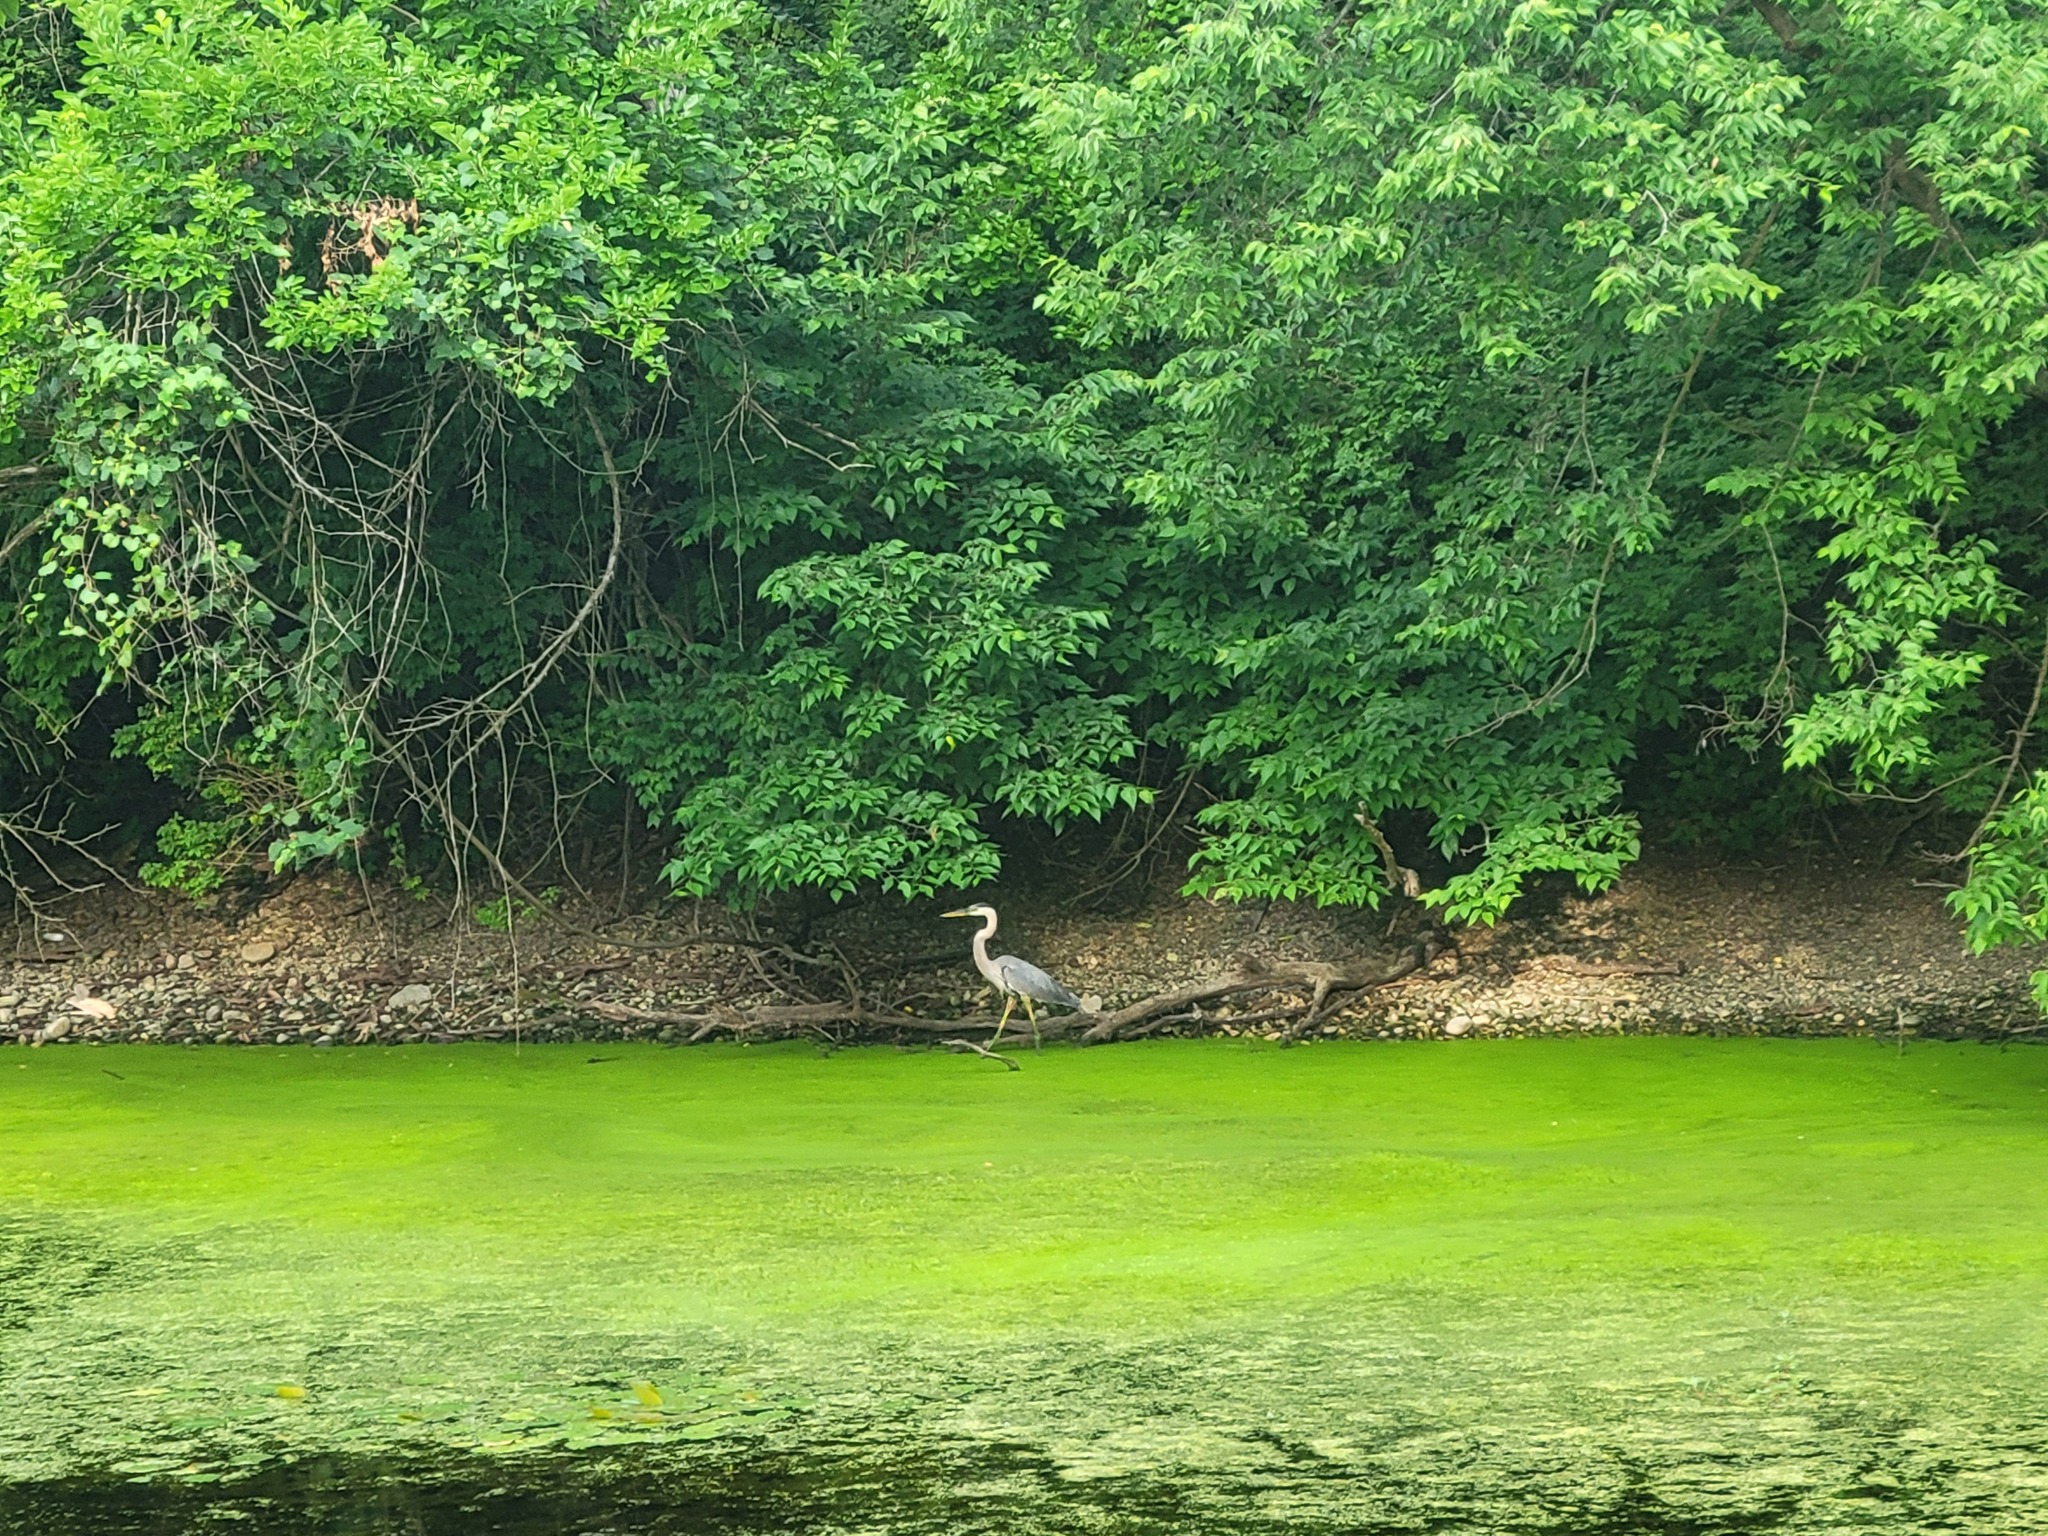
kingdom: Animalia
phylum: Chordata
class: Aves
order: Pelecaniformes
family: Ardeidae
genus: Ardea
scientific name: Ardea herodias
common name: Great blue heron
